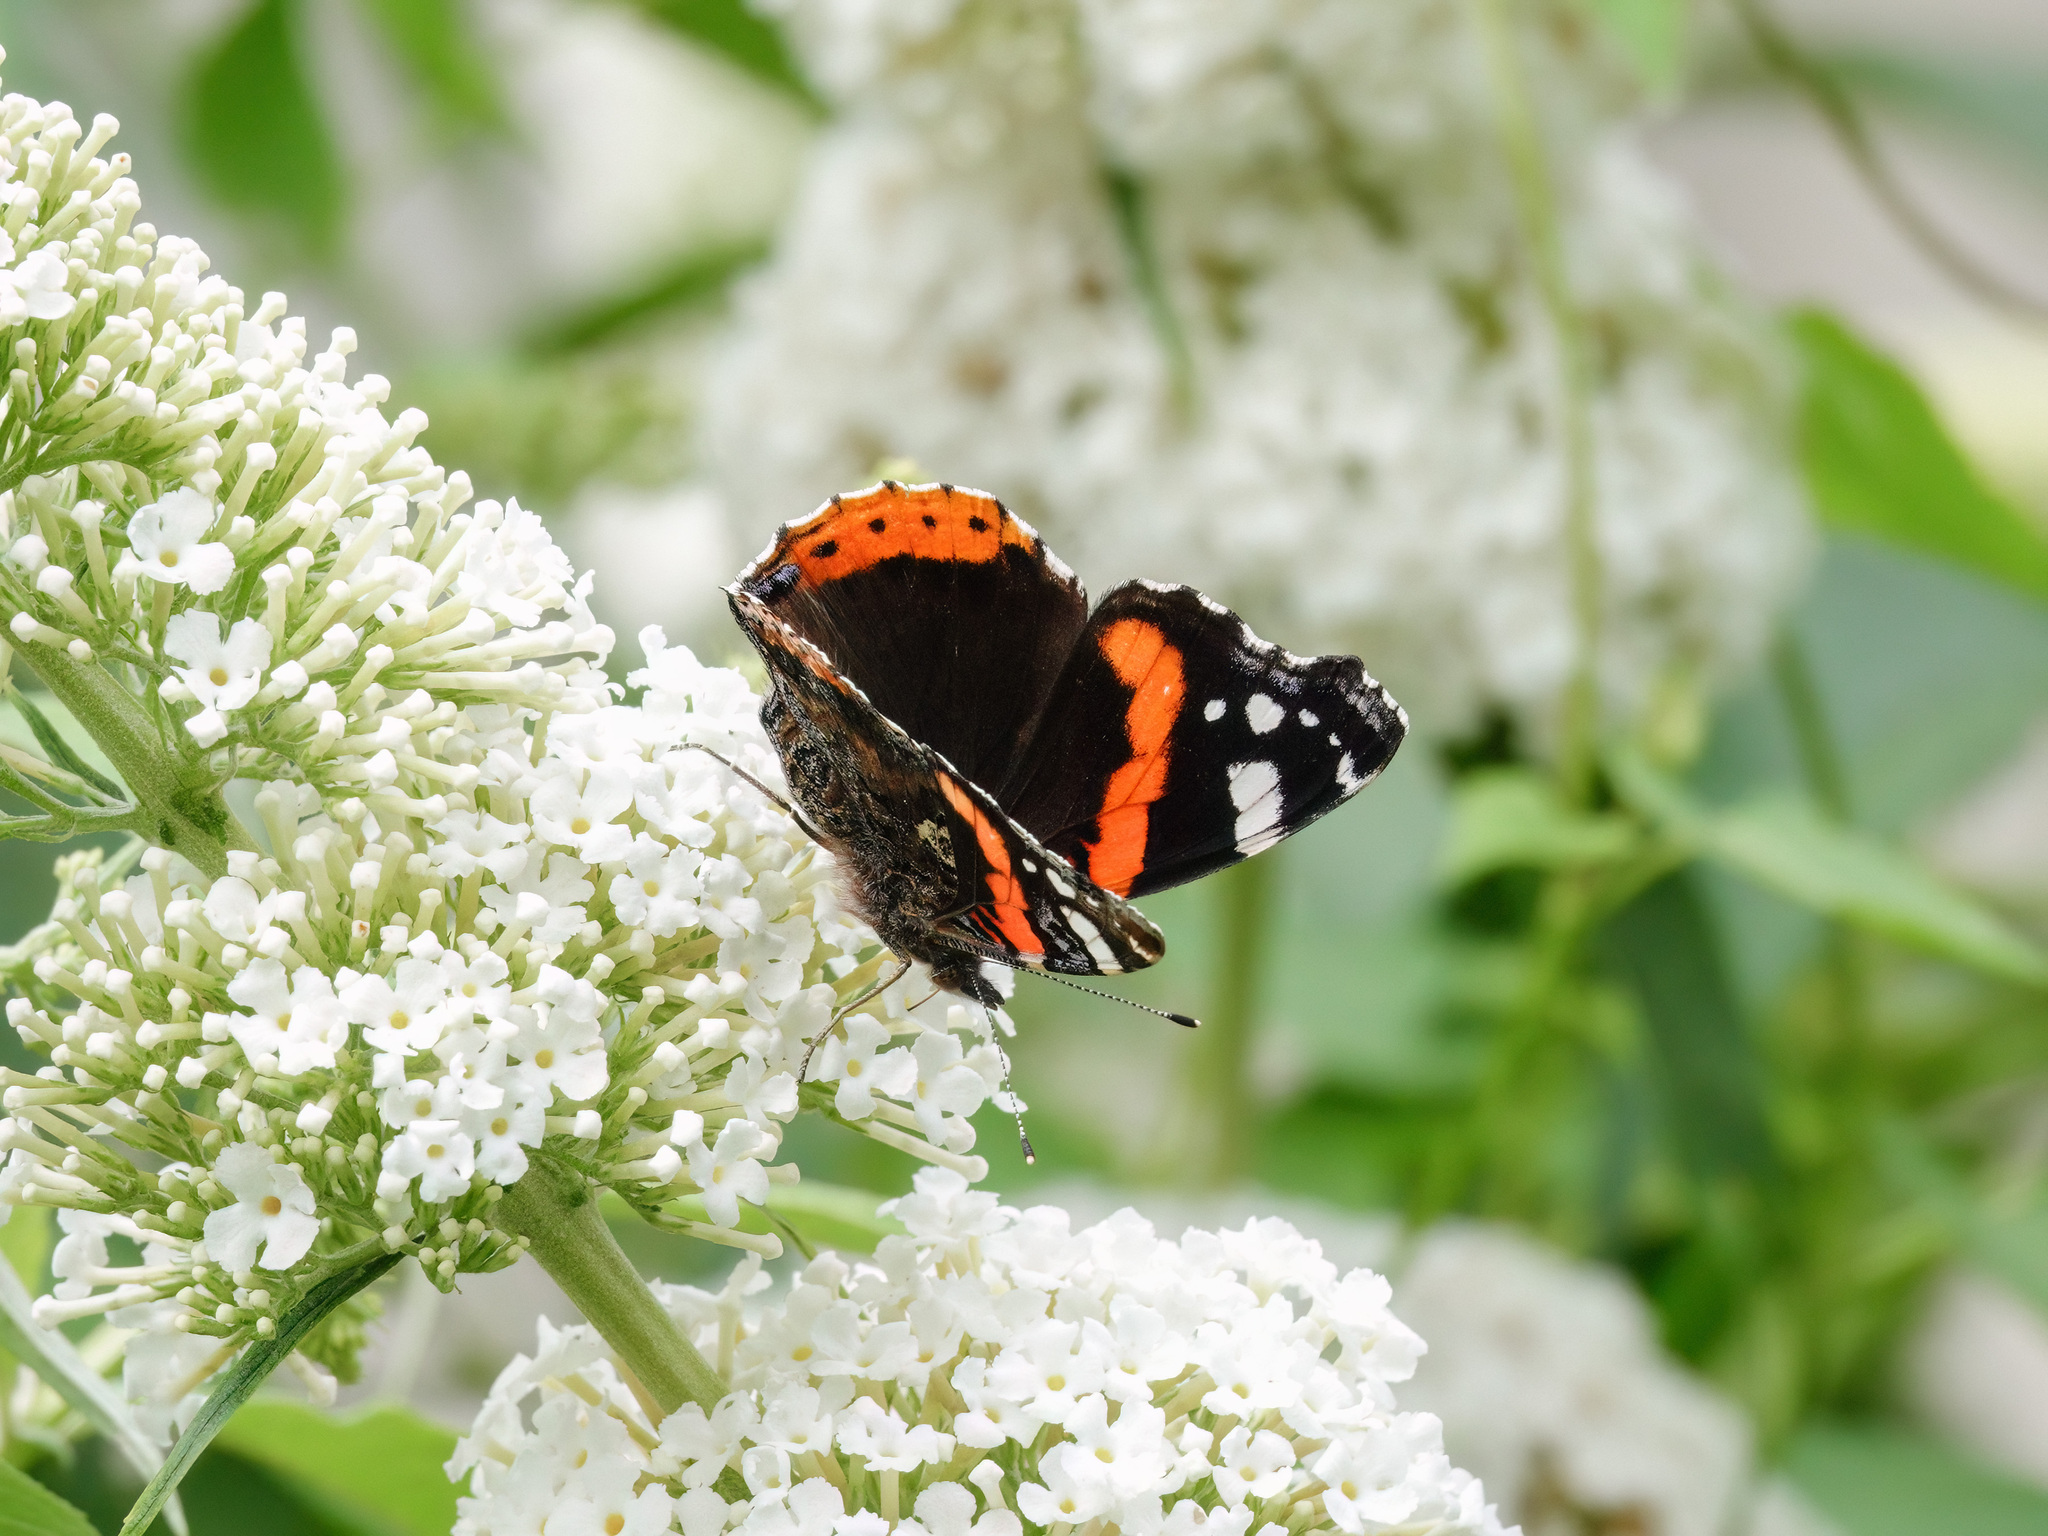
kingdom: Animalia
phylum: Arthropoda
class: Insecta
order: Lepidoptera
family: Nymphalidae
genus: Vanessa
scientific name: Vanessa atalanta
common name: Red admiral
